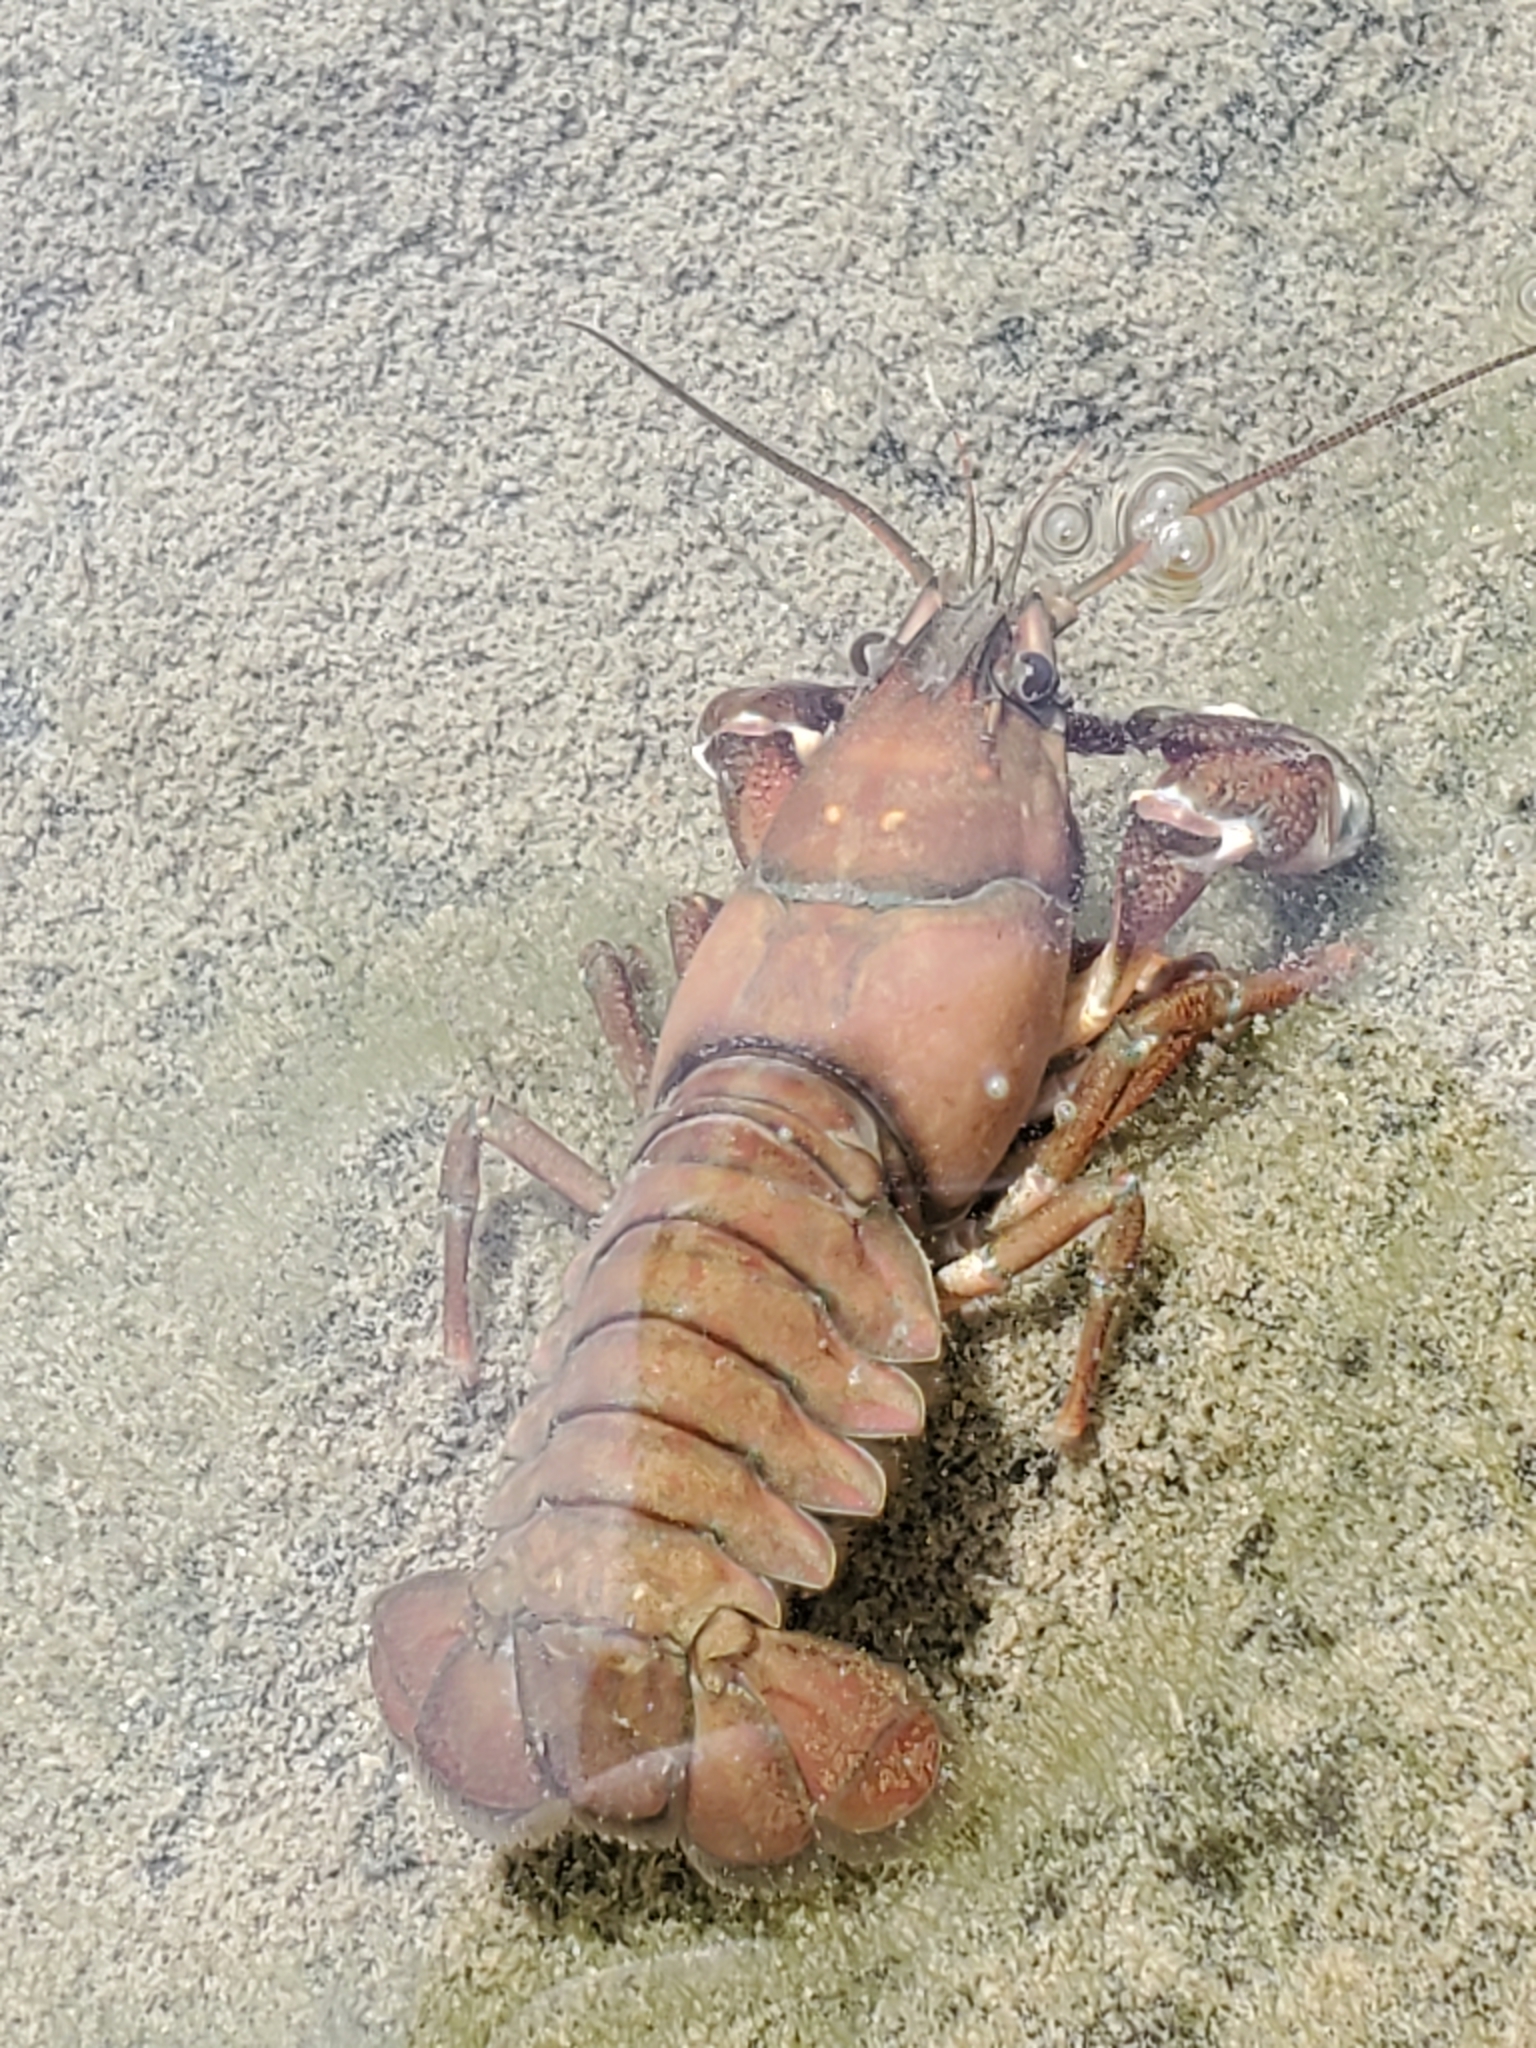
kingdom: Animalia
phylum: Arthropoda
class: Malacostraca
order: Decapoda
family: Astacidae
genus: Pacifastacus
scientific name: Pacifastacus leniusculus
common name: Signal crayfish
